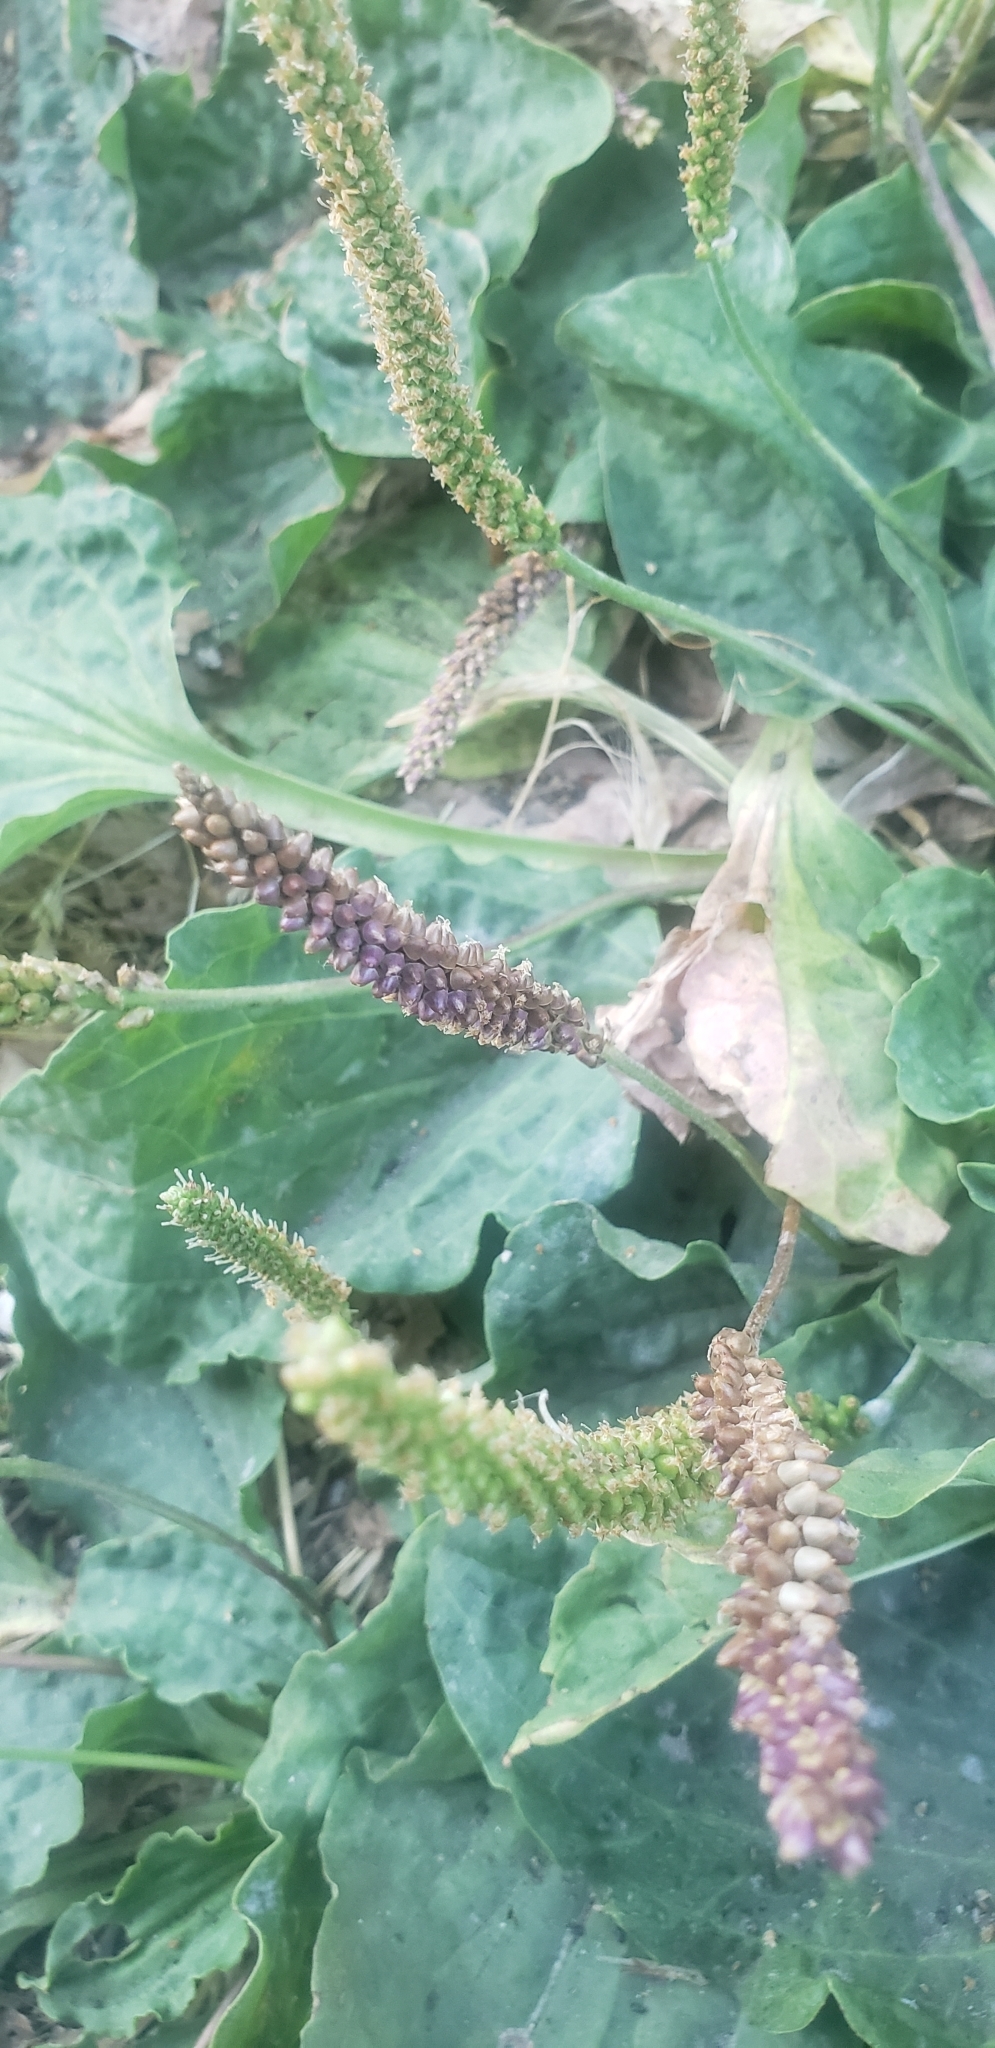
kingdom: Plantae
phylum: Tracheophyta
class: Magnoliopsida
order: Lamiales
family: Plantaginaceae
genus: Plantago
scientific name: Plantago major
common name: Common plantain
